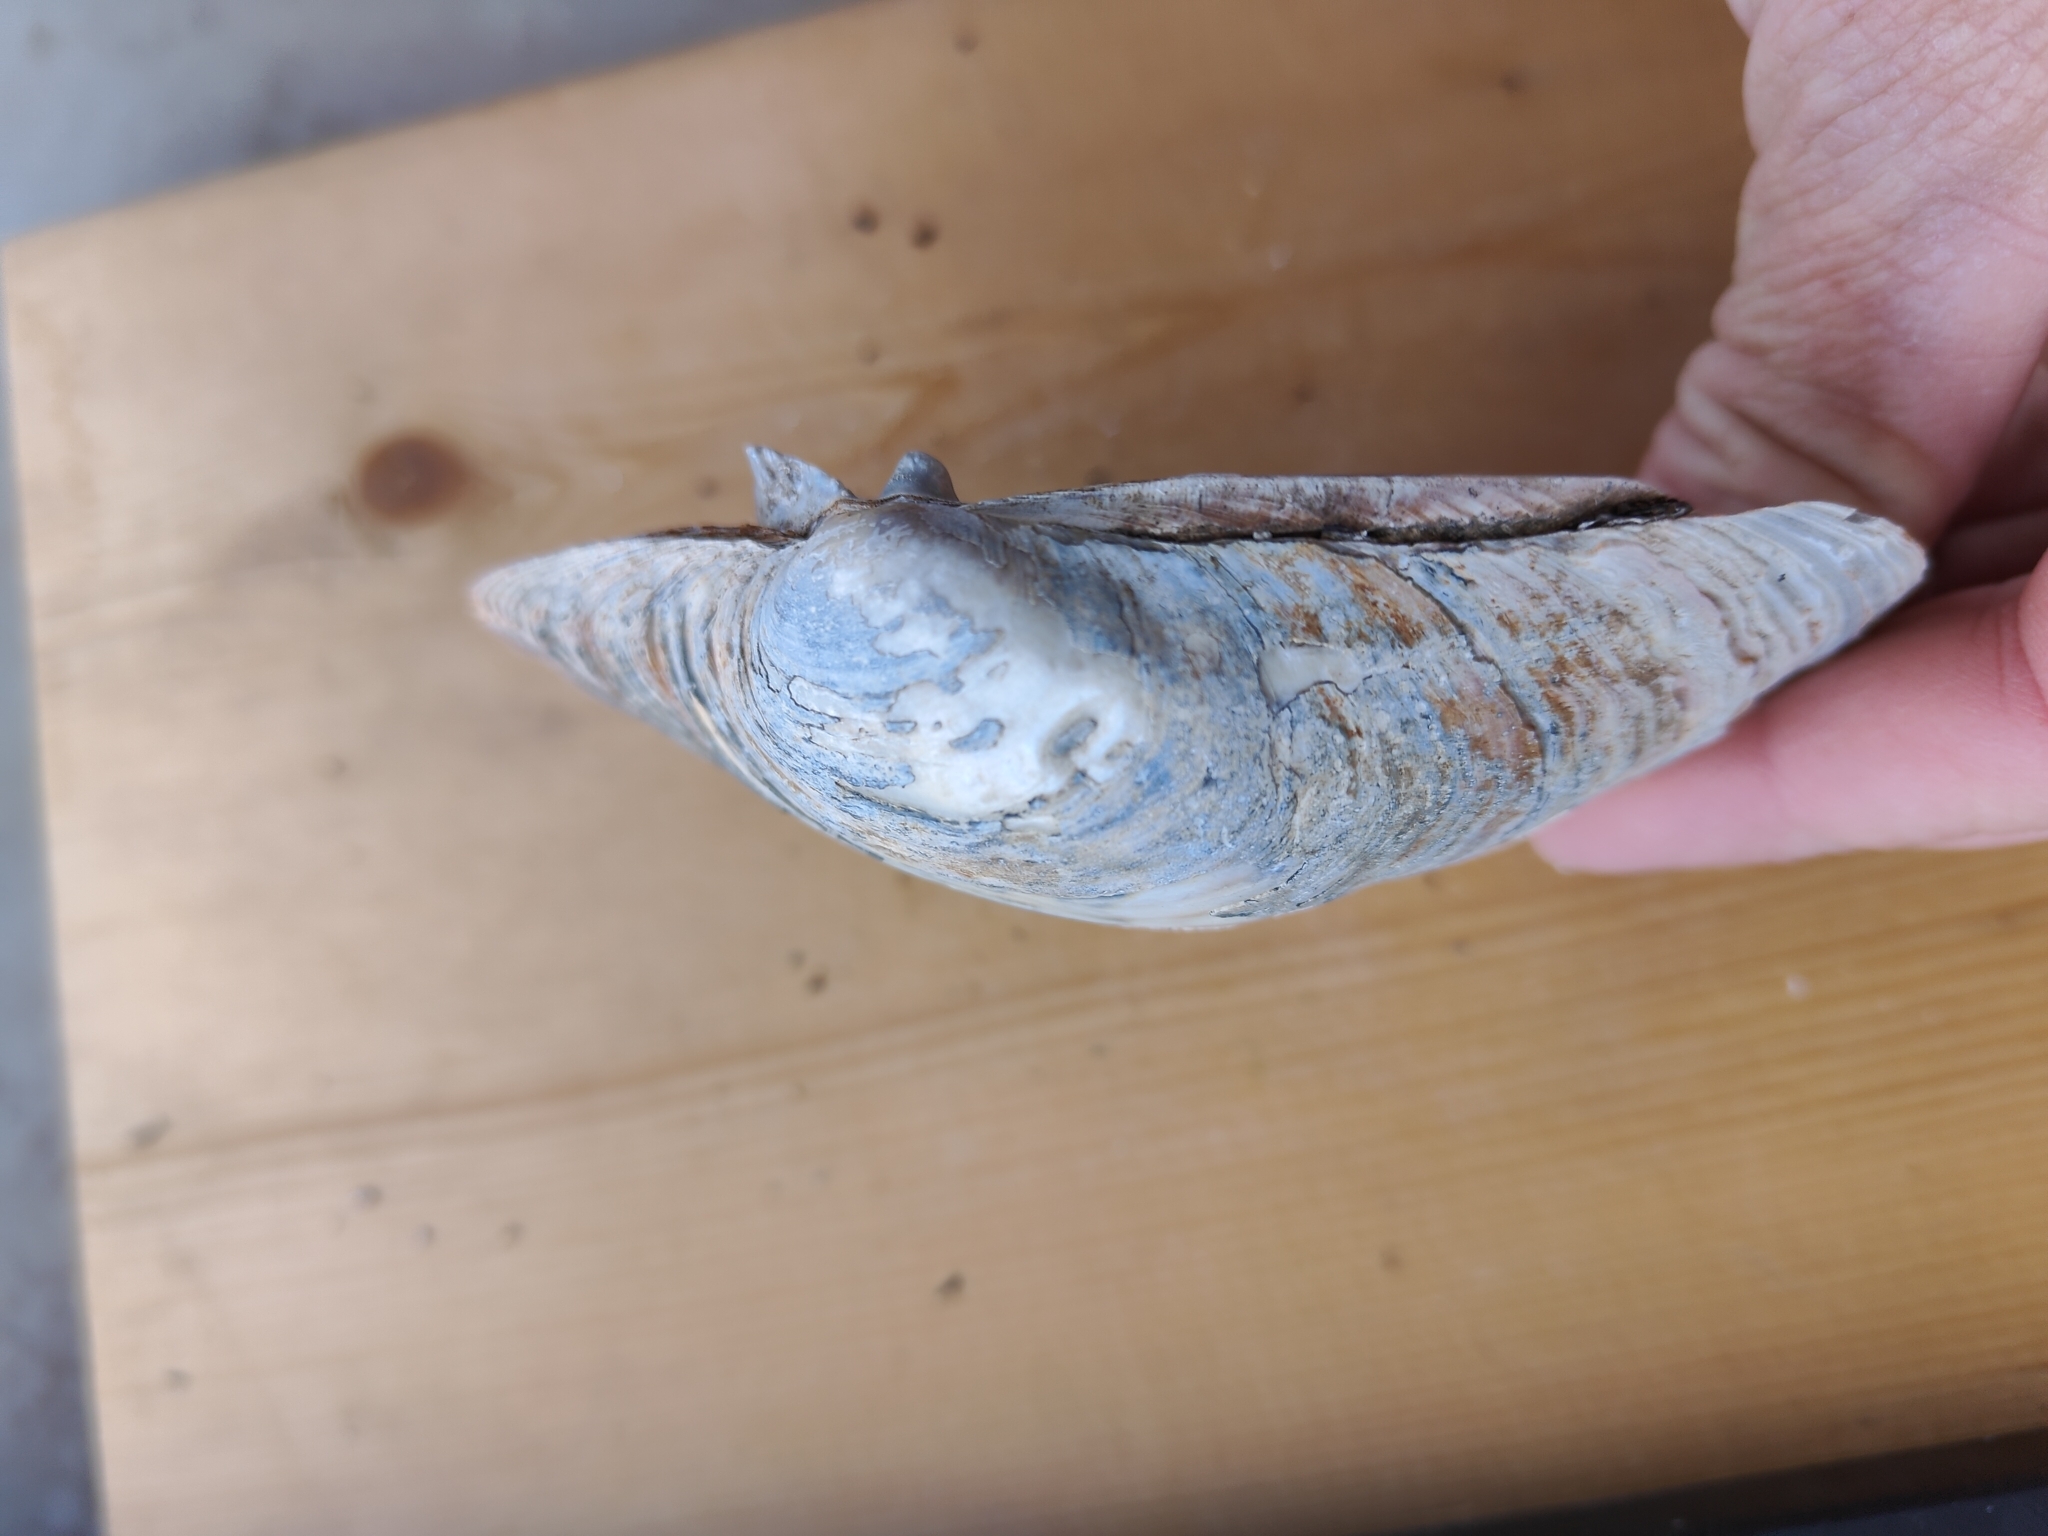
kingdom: Animalia
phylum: Mollusca
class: Bivalvia
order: Unionida
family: Unionidae
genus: Lampsilis
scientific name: Lampsilis cardium
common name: Plain pocketbook
